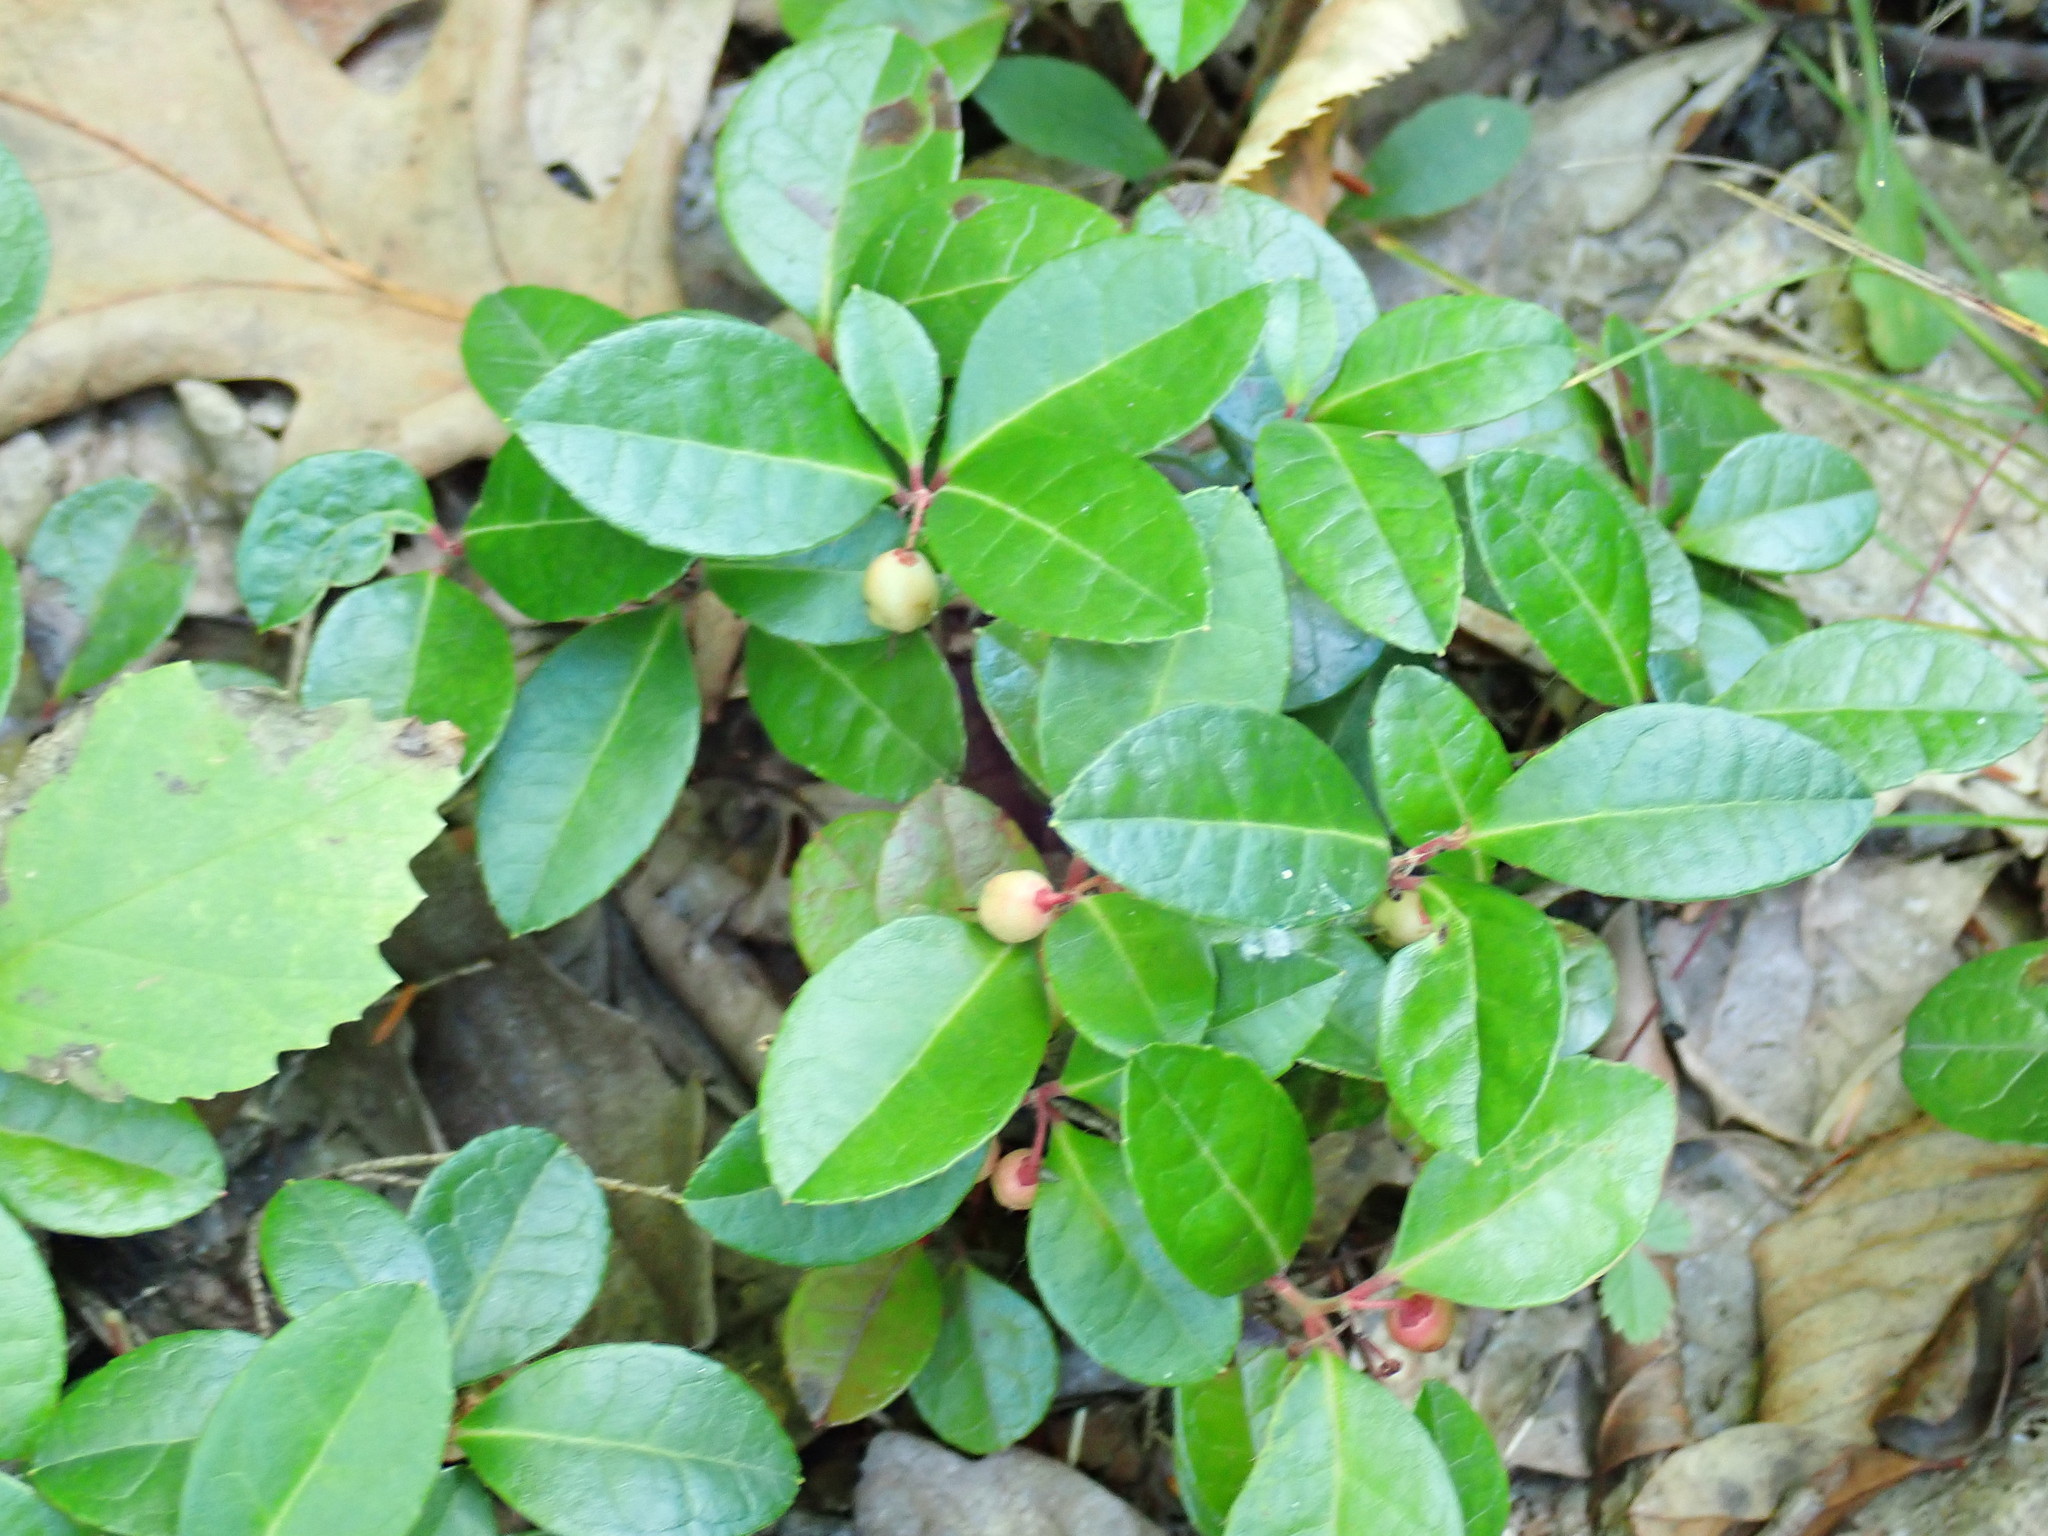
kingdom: Plantae
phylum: Tracheophyta
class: Magnoliopsida
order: Ericales
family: Ericaceae
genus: Gaultheria
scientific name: Gaultheria procumbens
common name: Checkerberry
